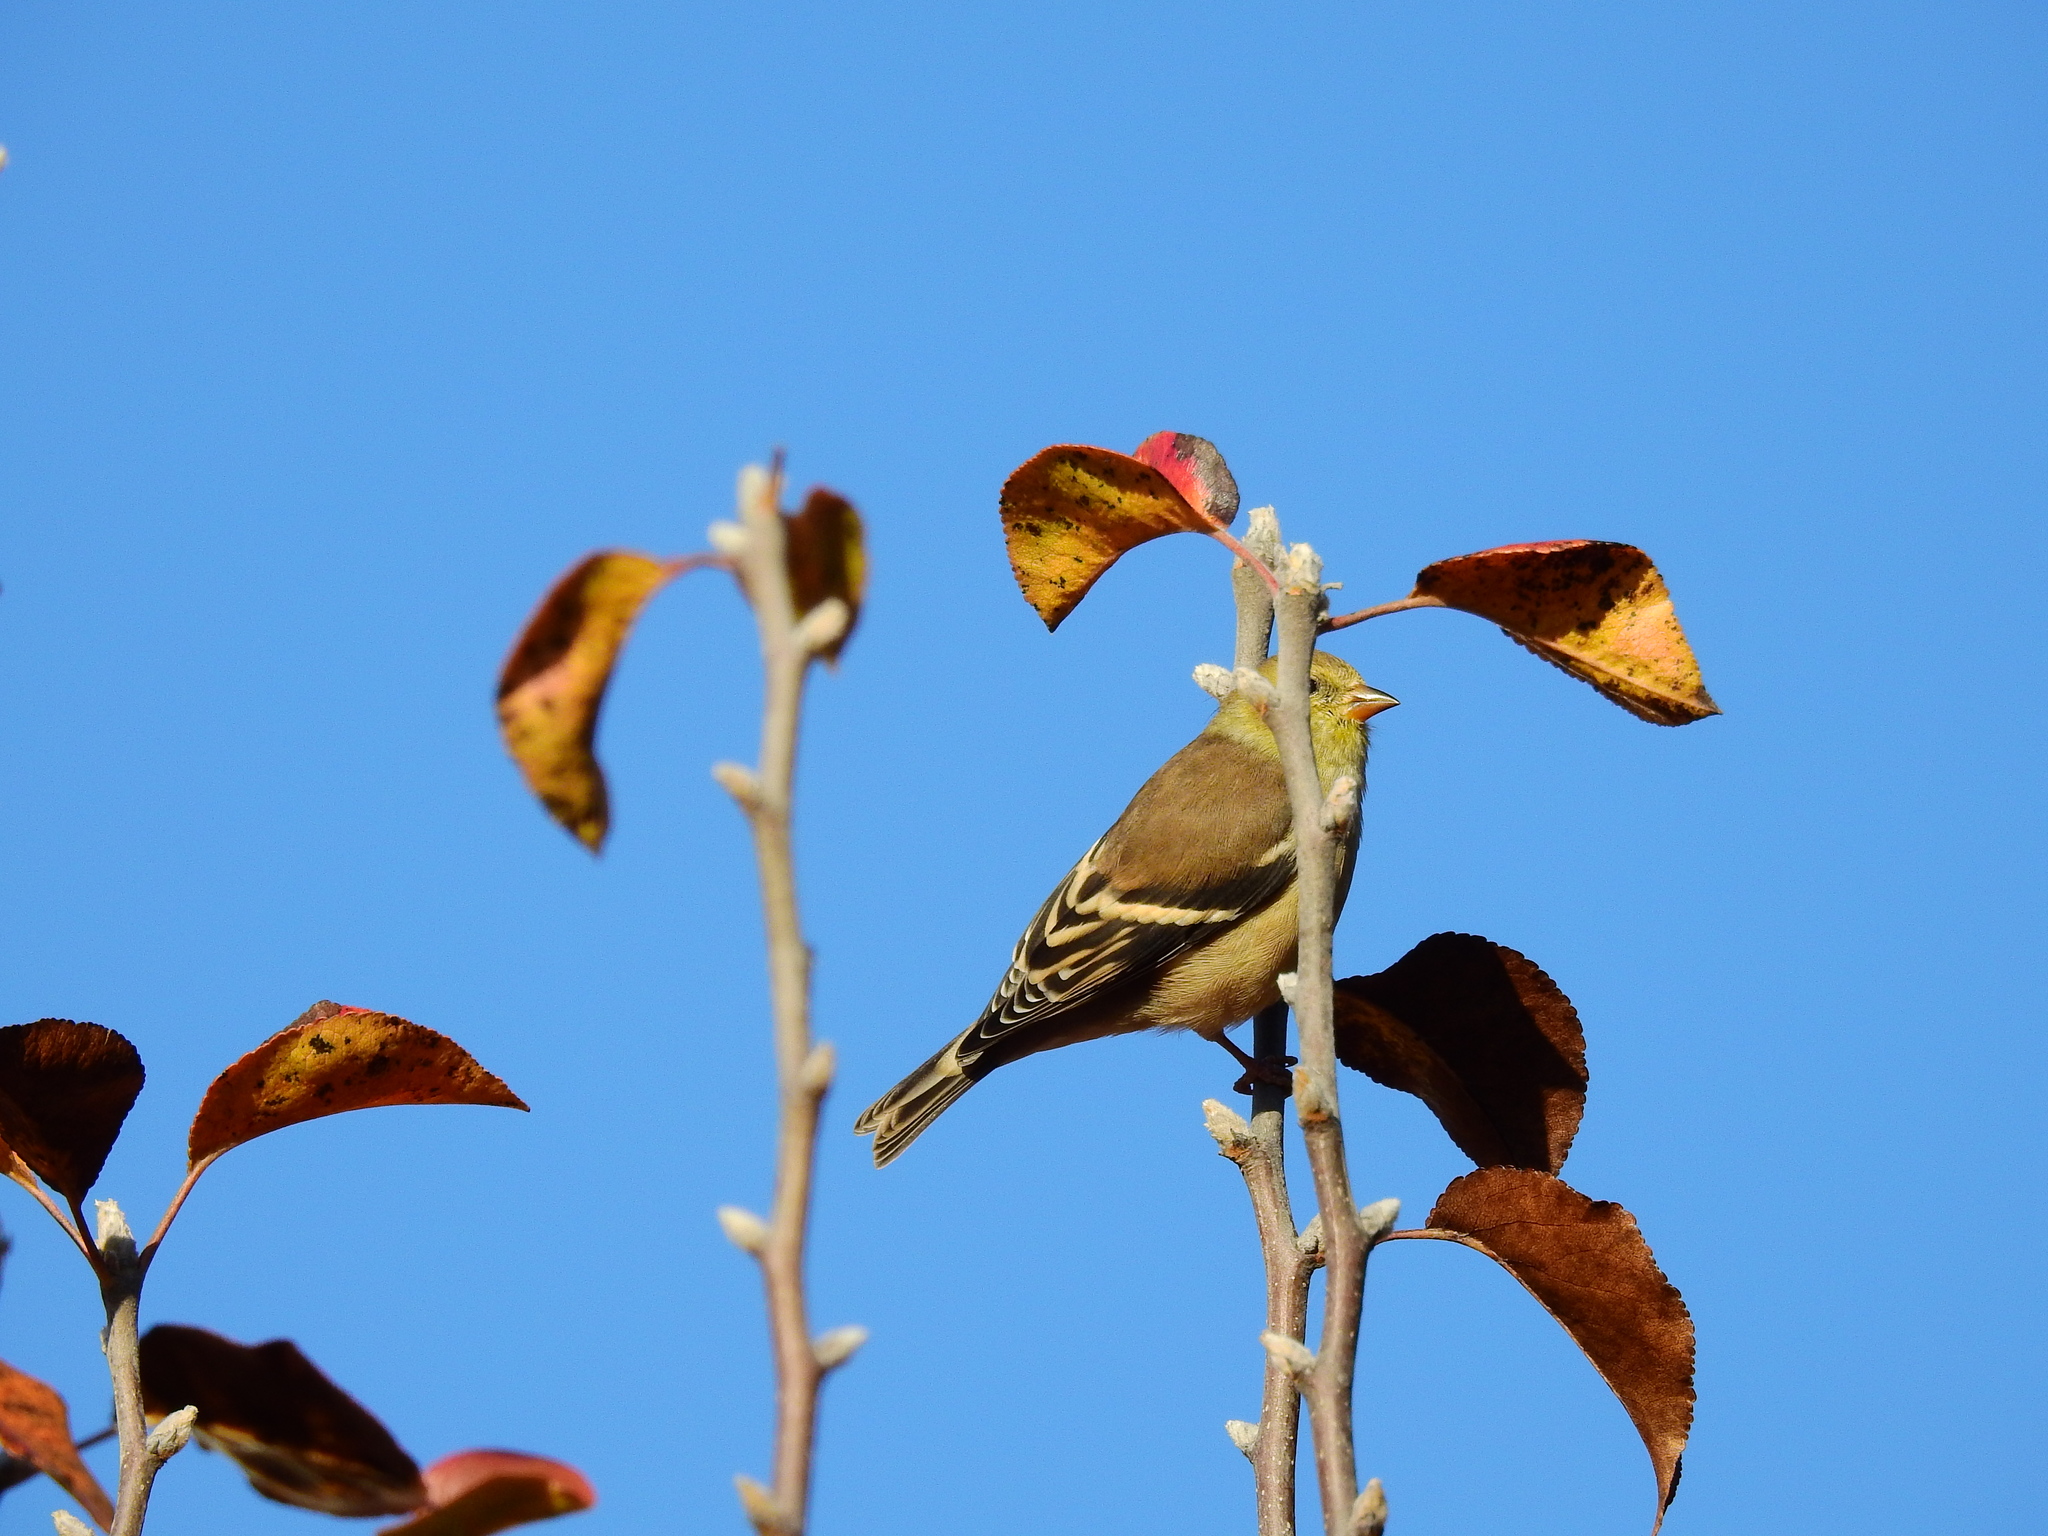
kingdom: Animalia
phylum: Chordata
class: Aves
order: Passeriformes
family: Fringillidae
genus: Spinus
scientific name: Spinus tristis
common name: American goldfinch
